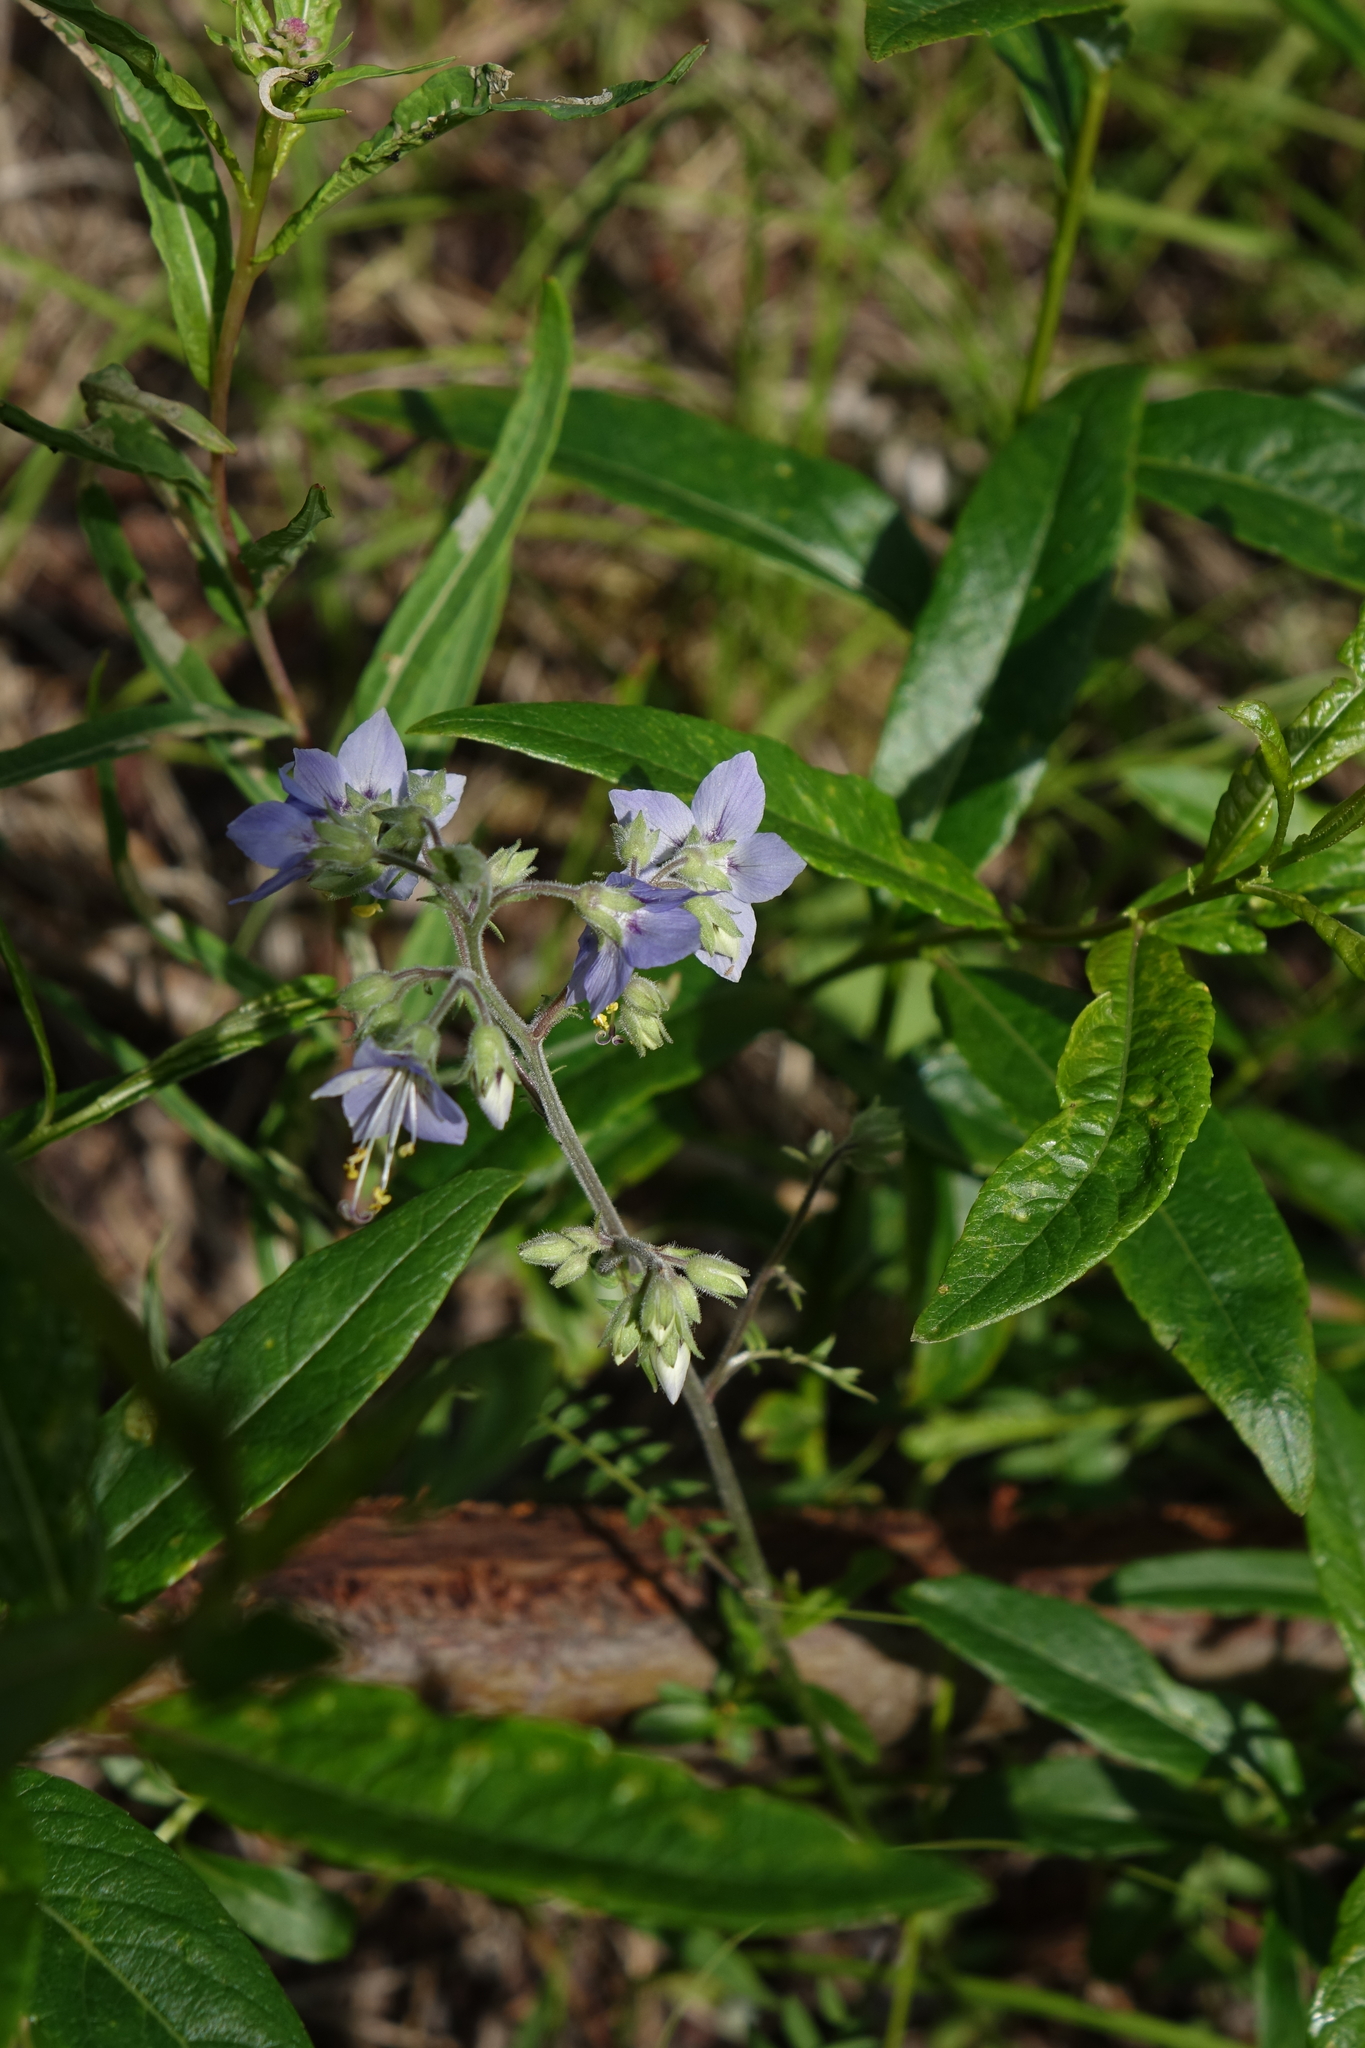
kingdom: Plantae
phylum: Tracheophyta
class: Magnoliopsida
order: Ericales
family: Polemoniaceae
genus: Polemonium
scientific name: Polemonium acutiflorum
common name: Tall jacob's-ladder
